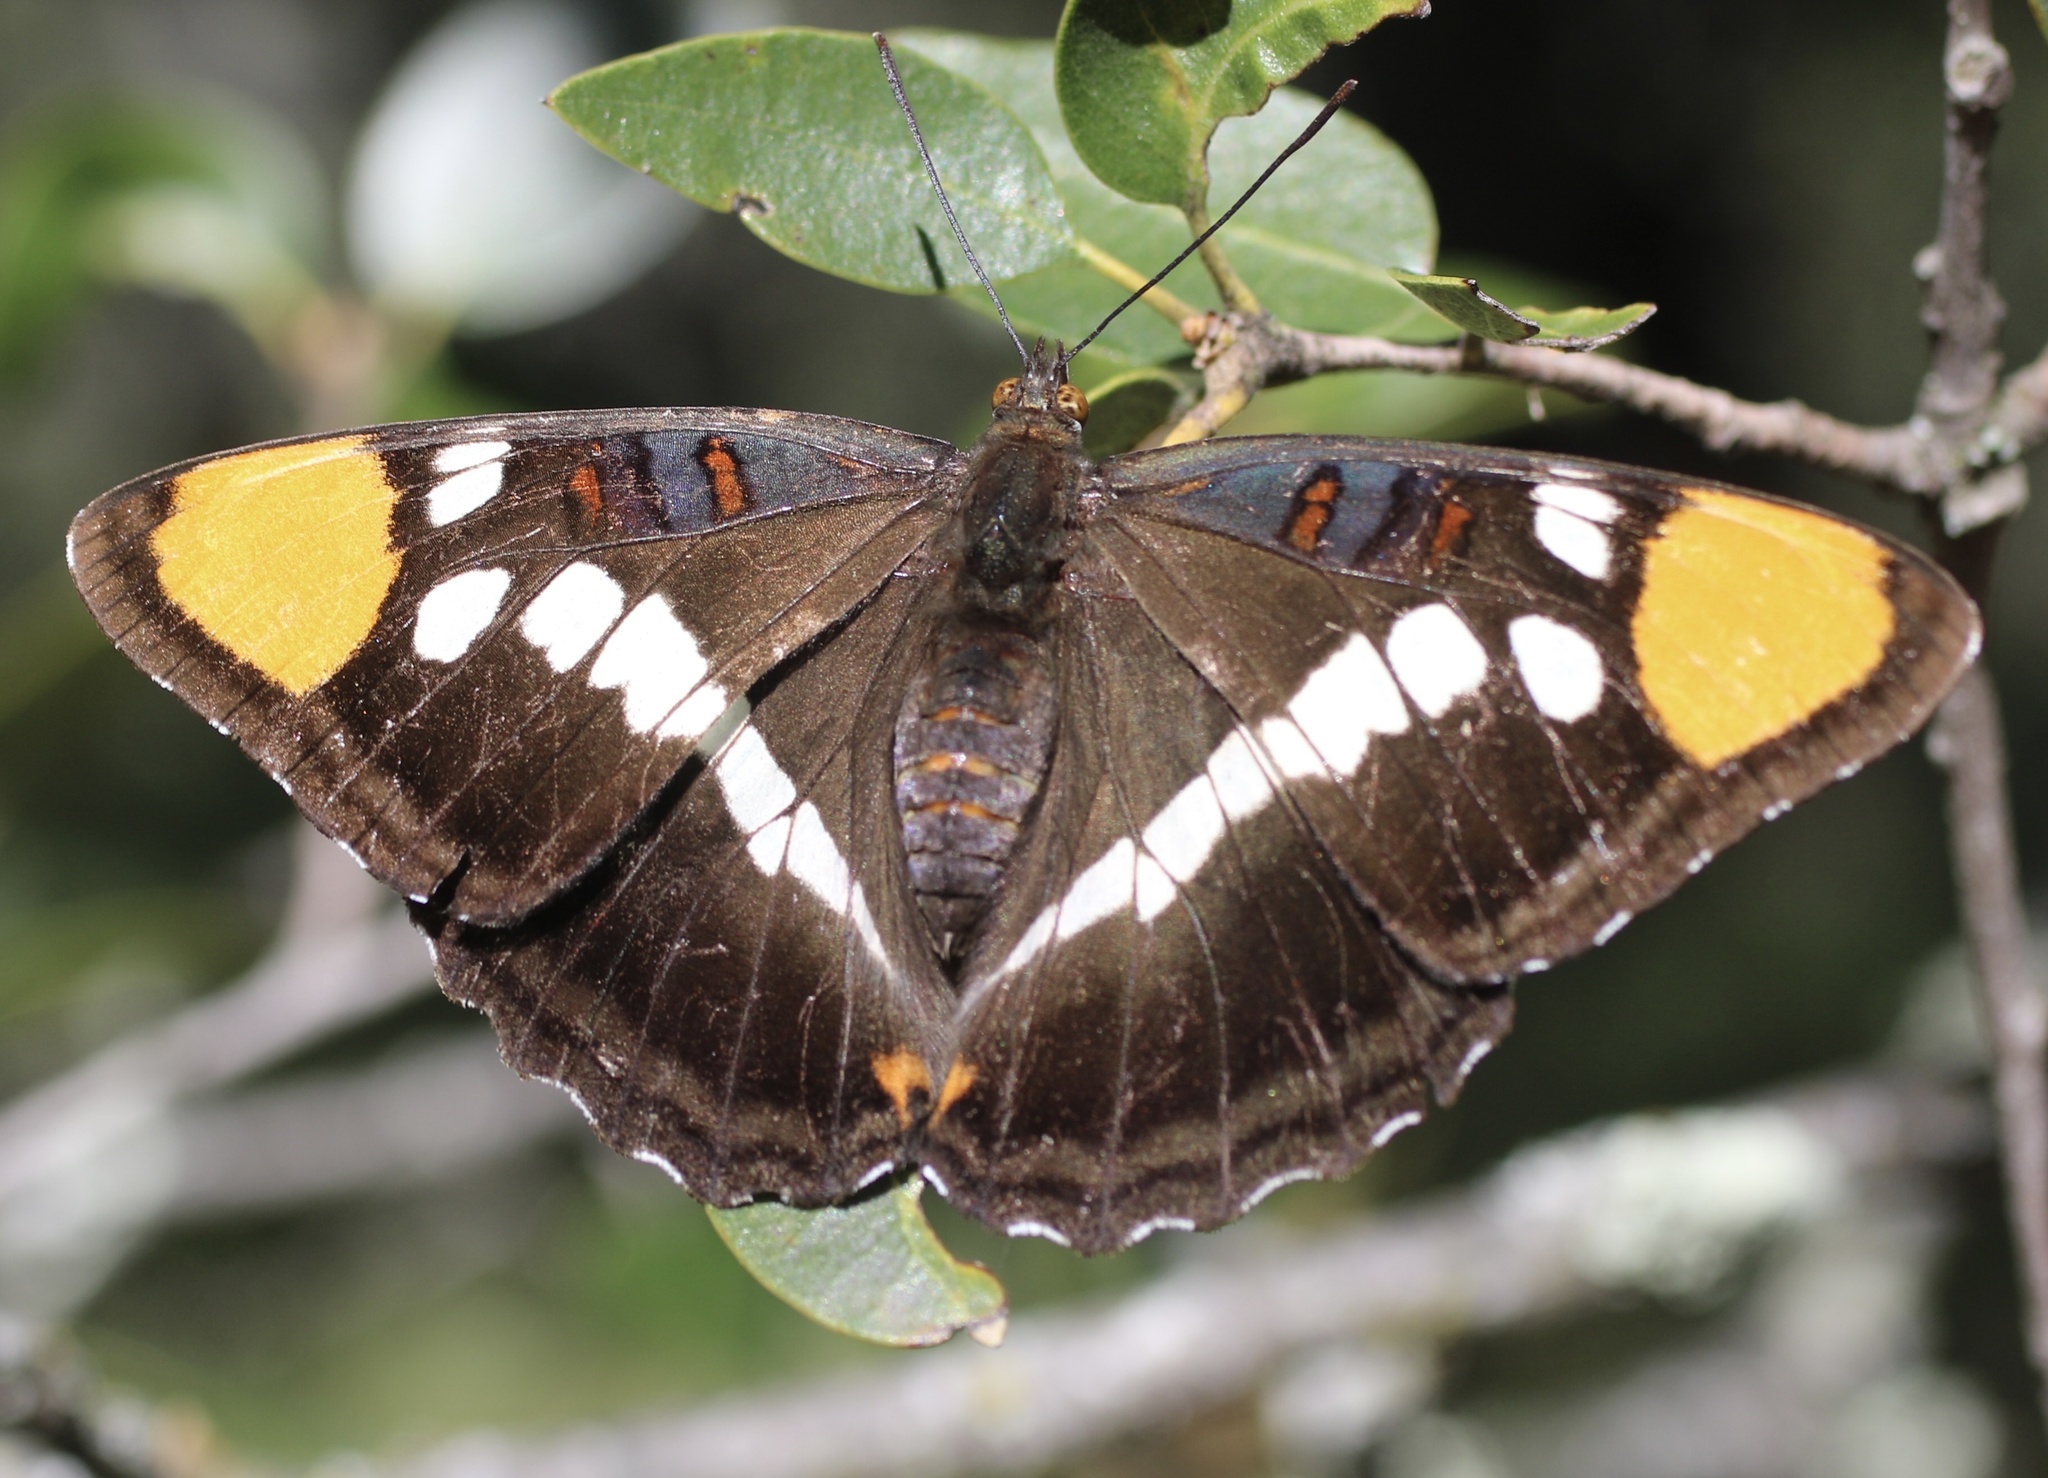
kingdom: Animalia
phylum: Arthropoda
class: Insecta
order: Lepidoptera
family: Nymphalidae
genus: Limenitis
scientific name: Limenitis bredowii
